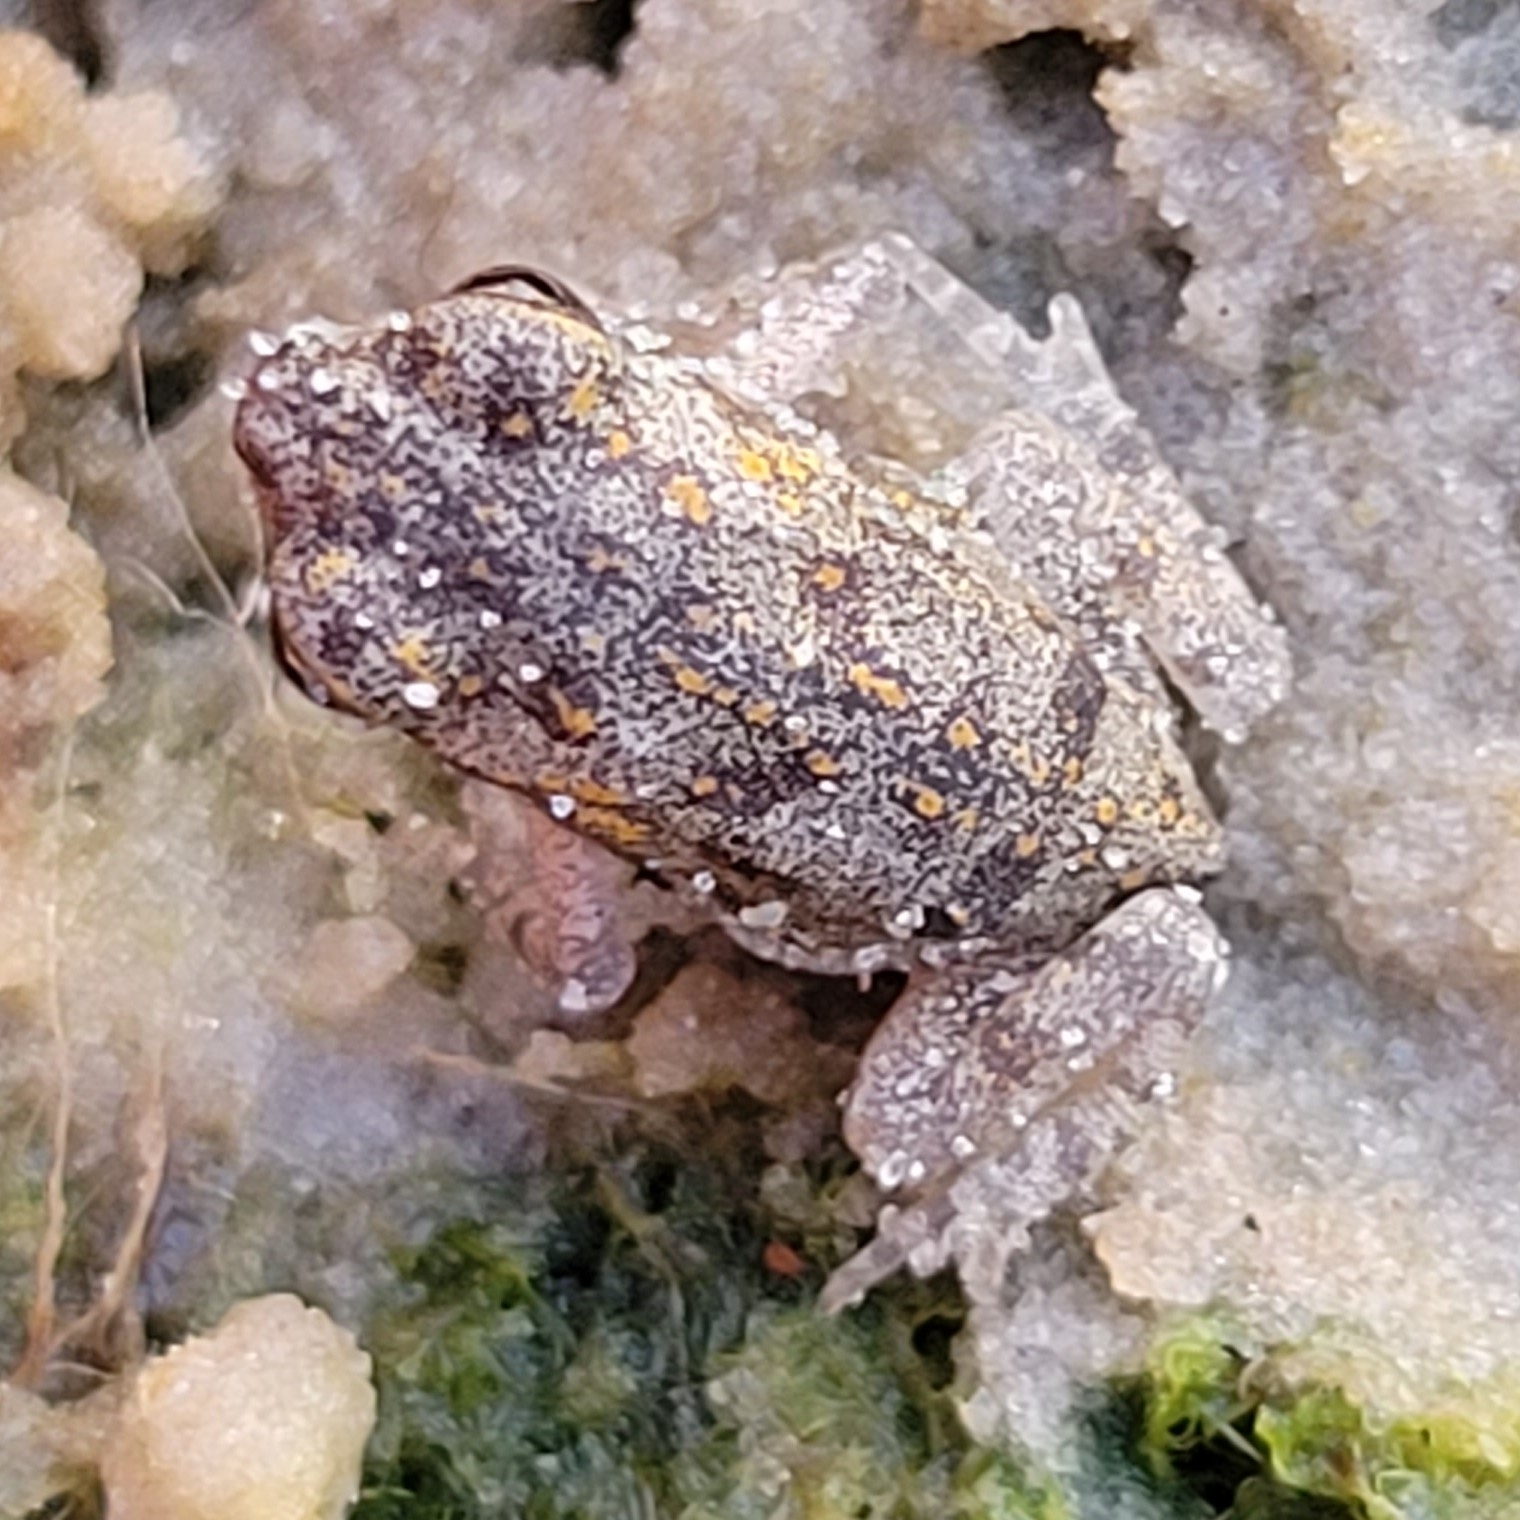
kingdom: Animalia
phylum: Chordata
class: Amphibia
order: Anura
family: Bufonidae
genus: Rhinella
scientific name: Rhinella marina
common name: Cane toad
